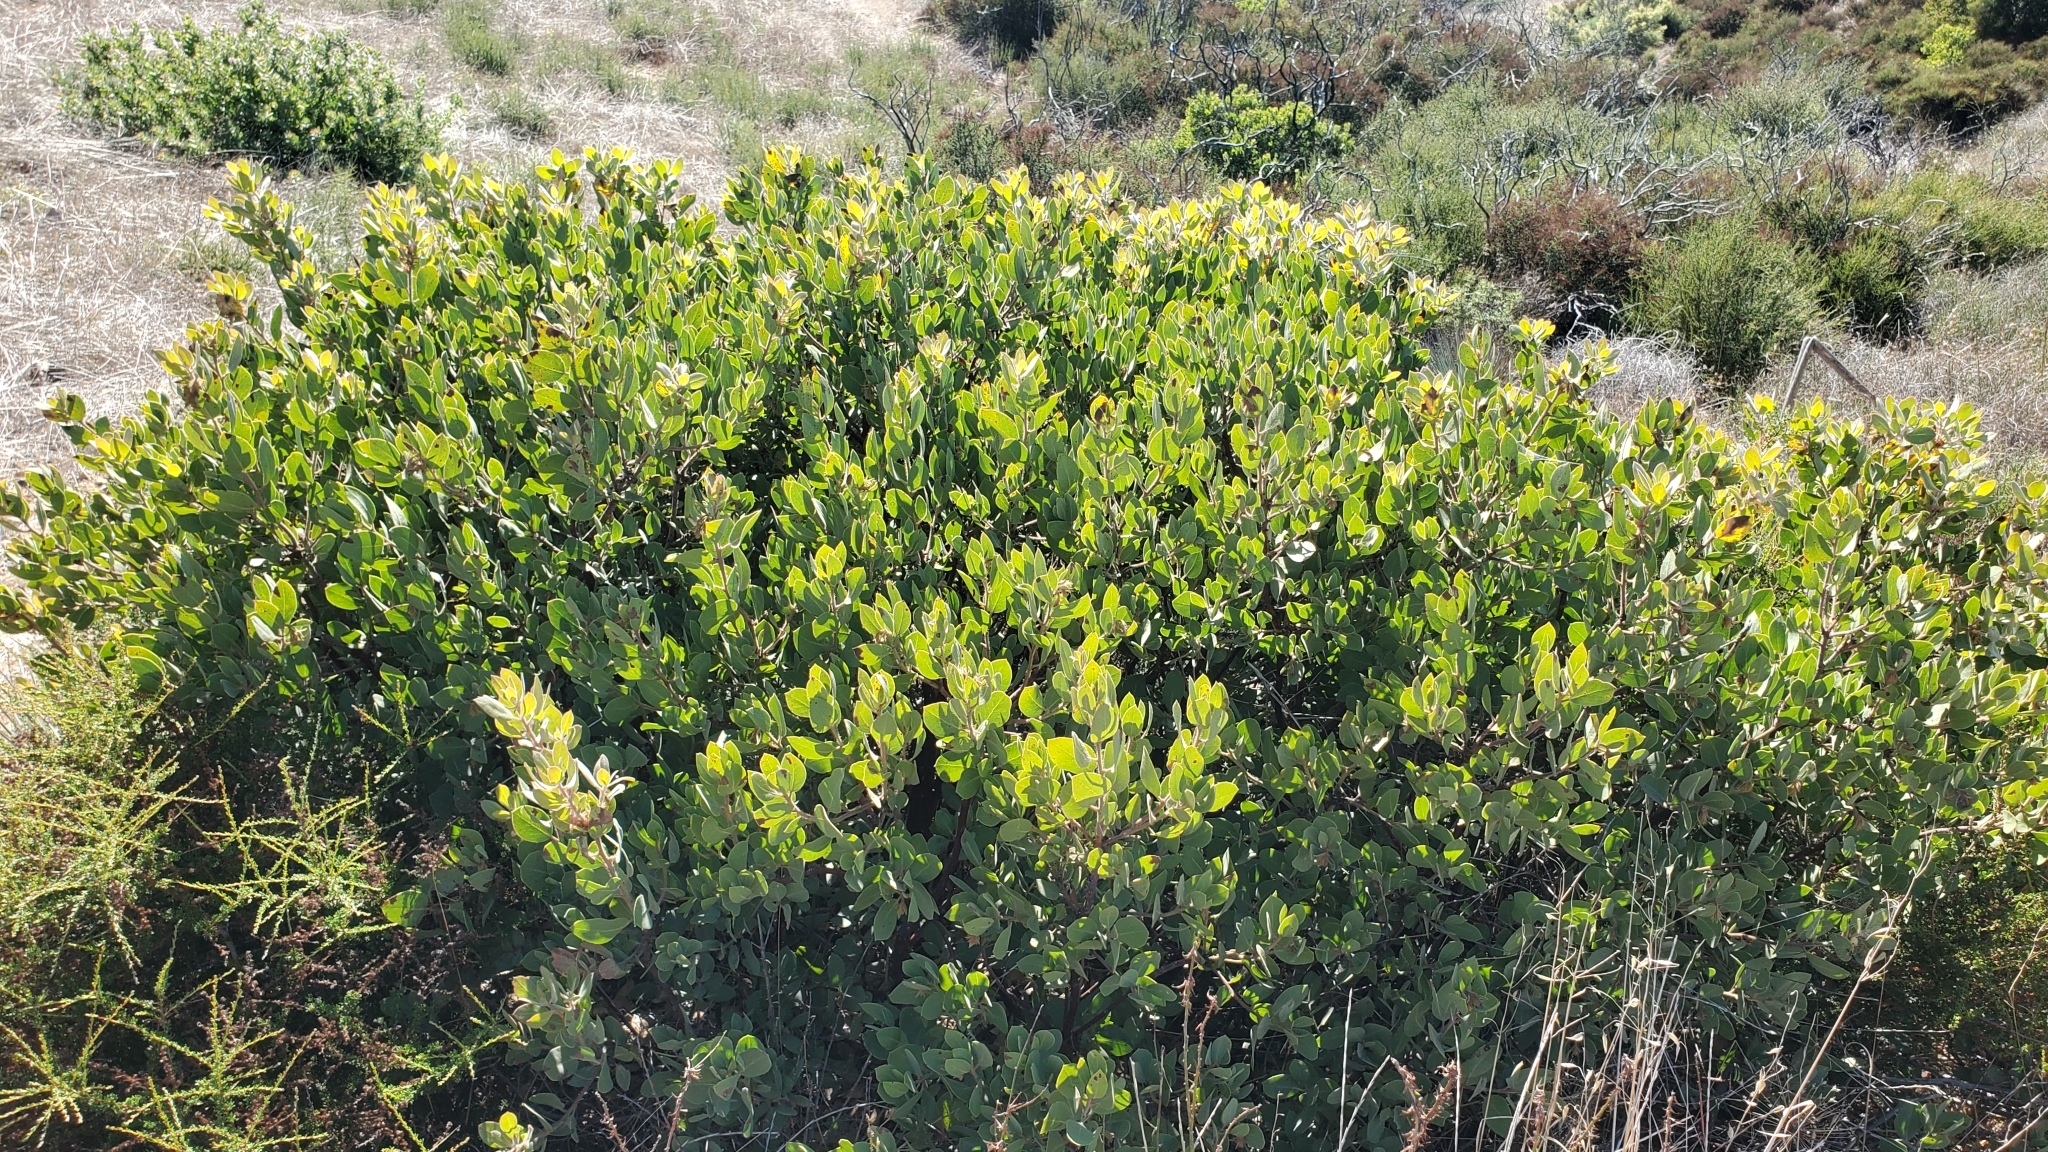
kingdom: Plantae
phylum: Tracheophyta
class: Magnoliopsida
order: Ericales
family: Ericaceae
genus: Arctostaphylos
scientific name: Arctostaphylos glandulosa
